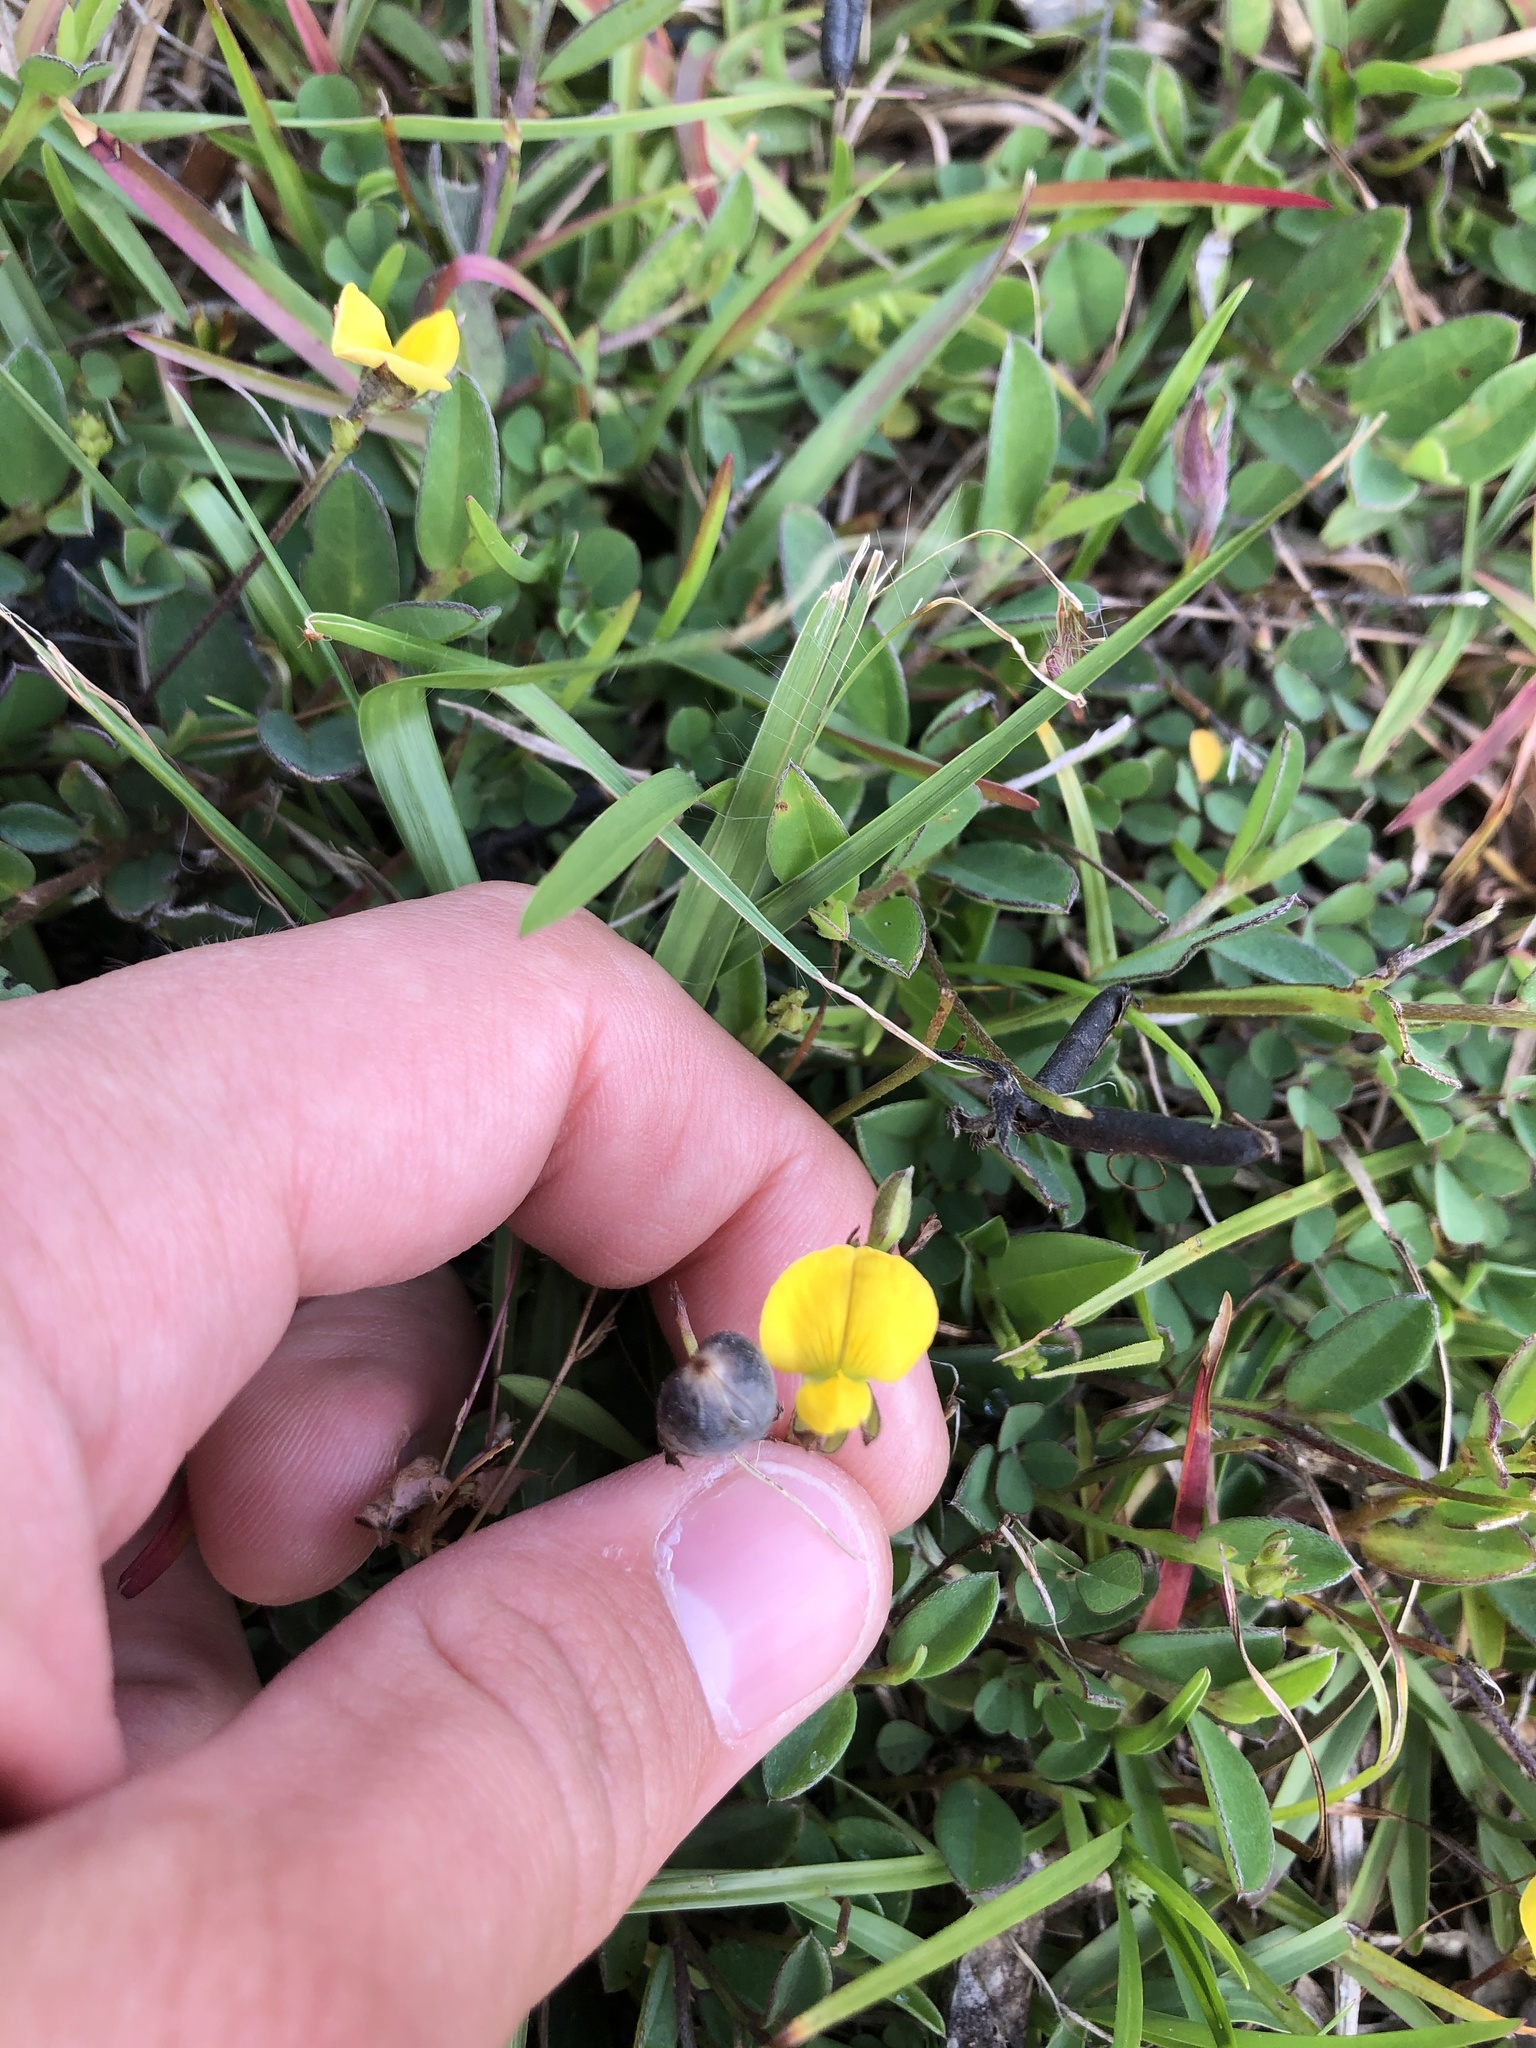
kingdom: Plantae
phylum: Tracheophyta
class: Magnoliopsida
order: Fabales
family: Fabaceae
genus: Crotalaria
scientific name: Crotalaria rotundifolia
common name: Prostrate rattlebox
